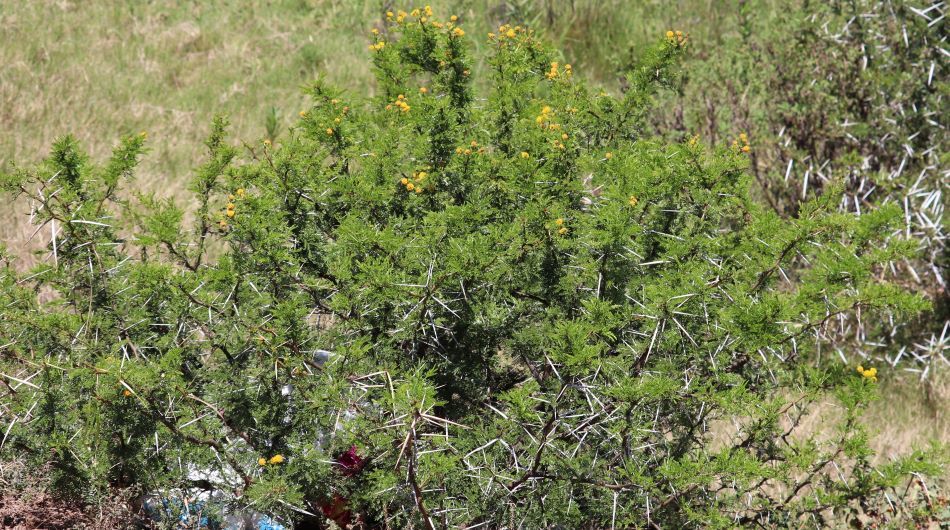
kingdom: Plantae
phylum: Tracheophyta
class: Magnoliopsida
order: Fabales
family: Fabaceae
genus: Vachellia
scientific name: Vachellia karroo
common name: Sweet thorn
